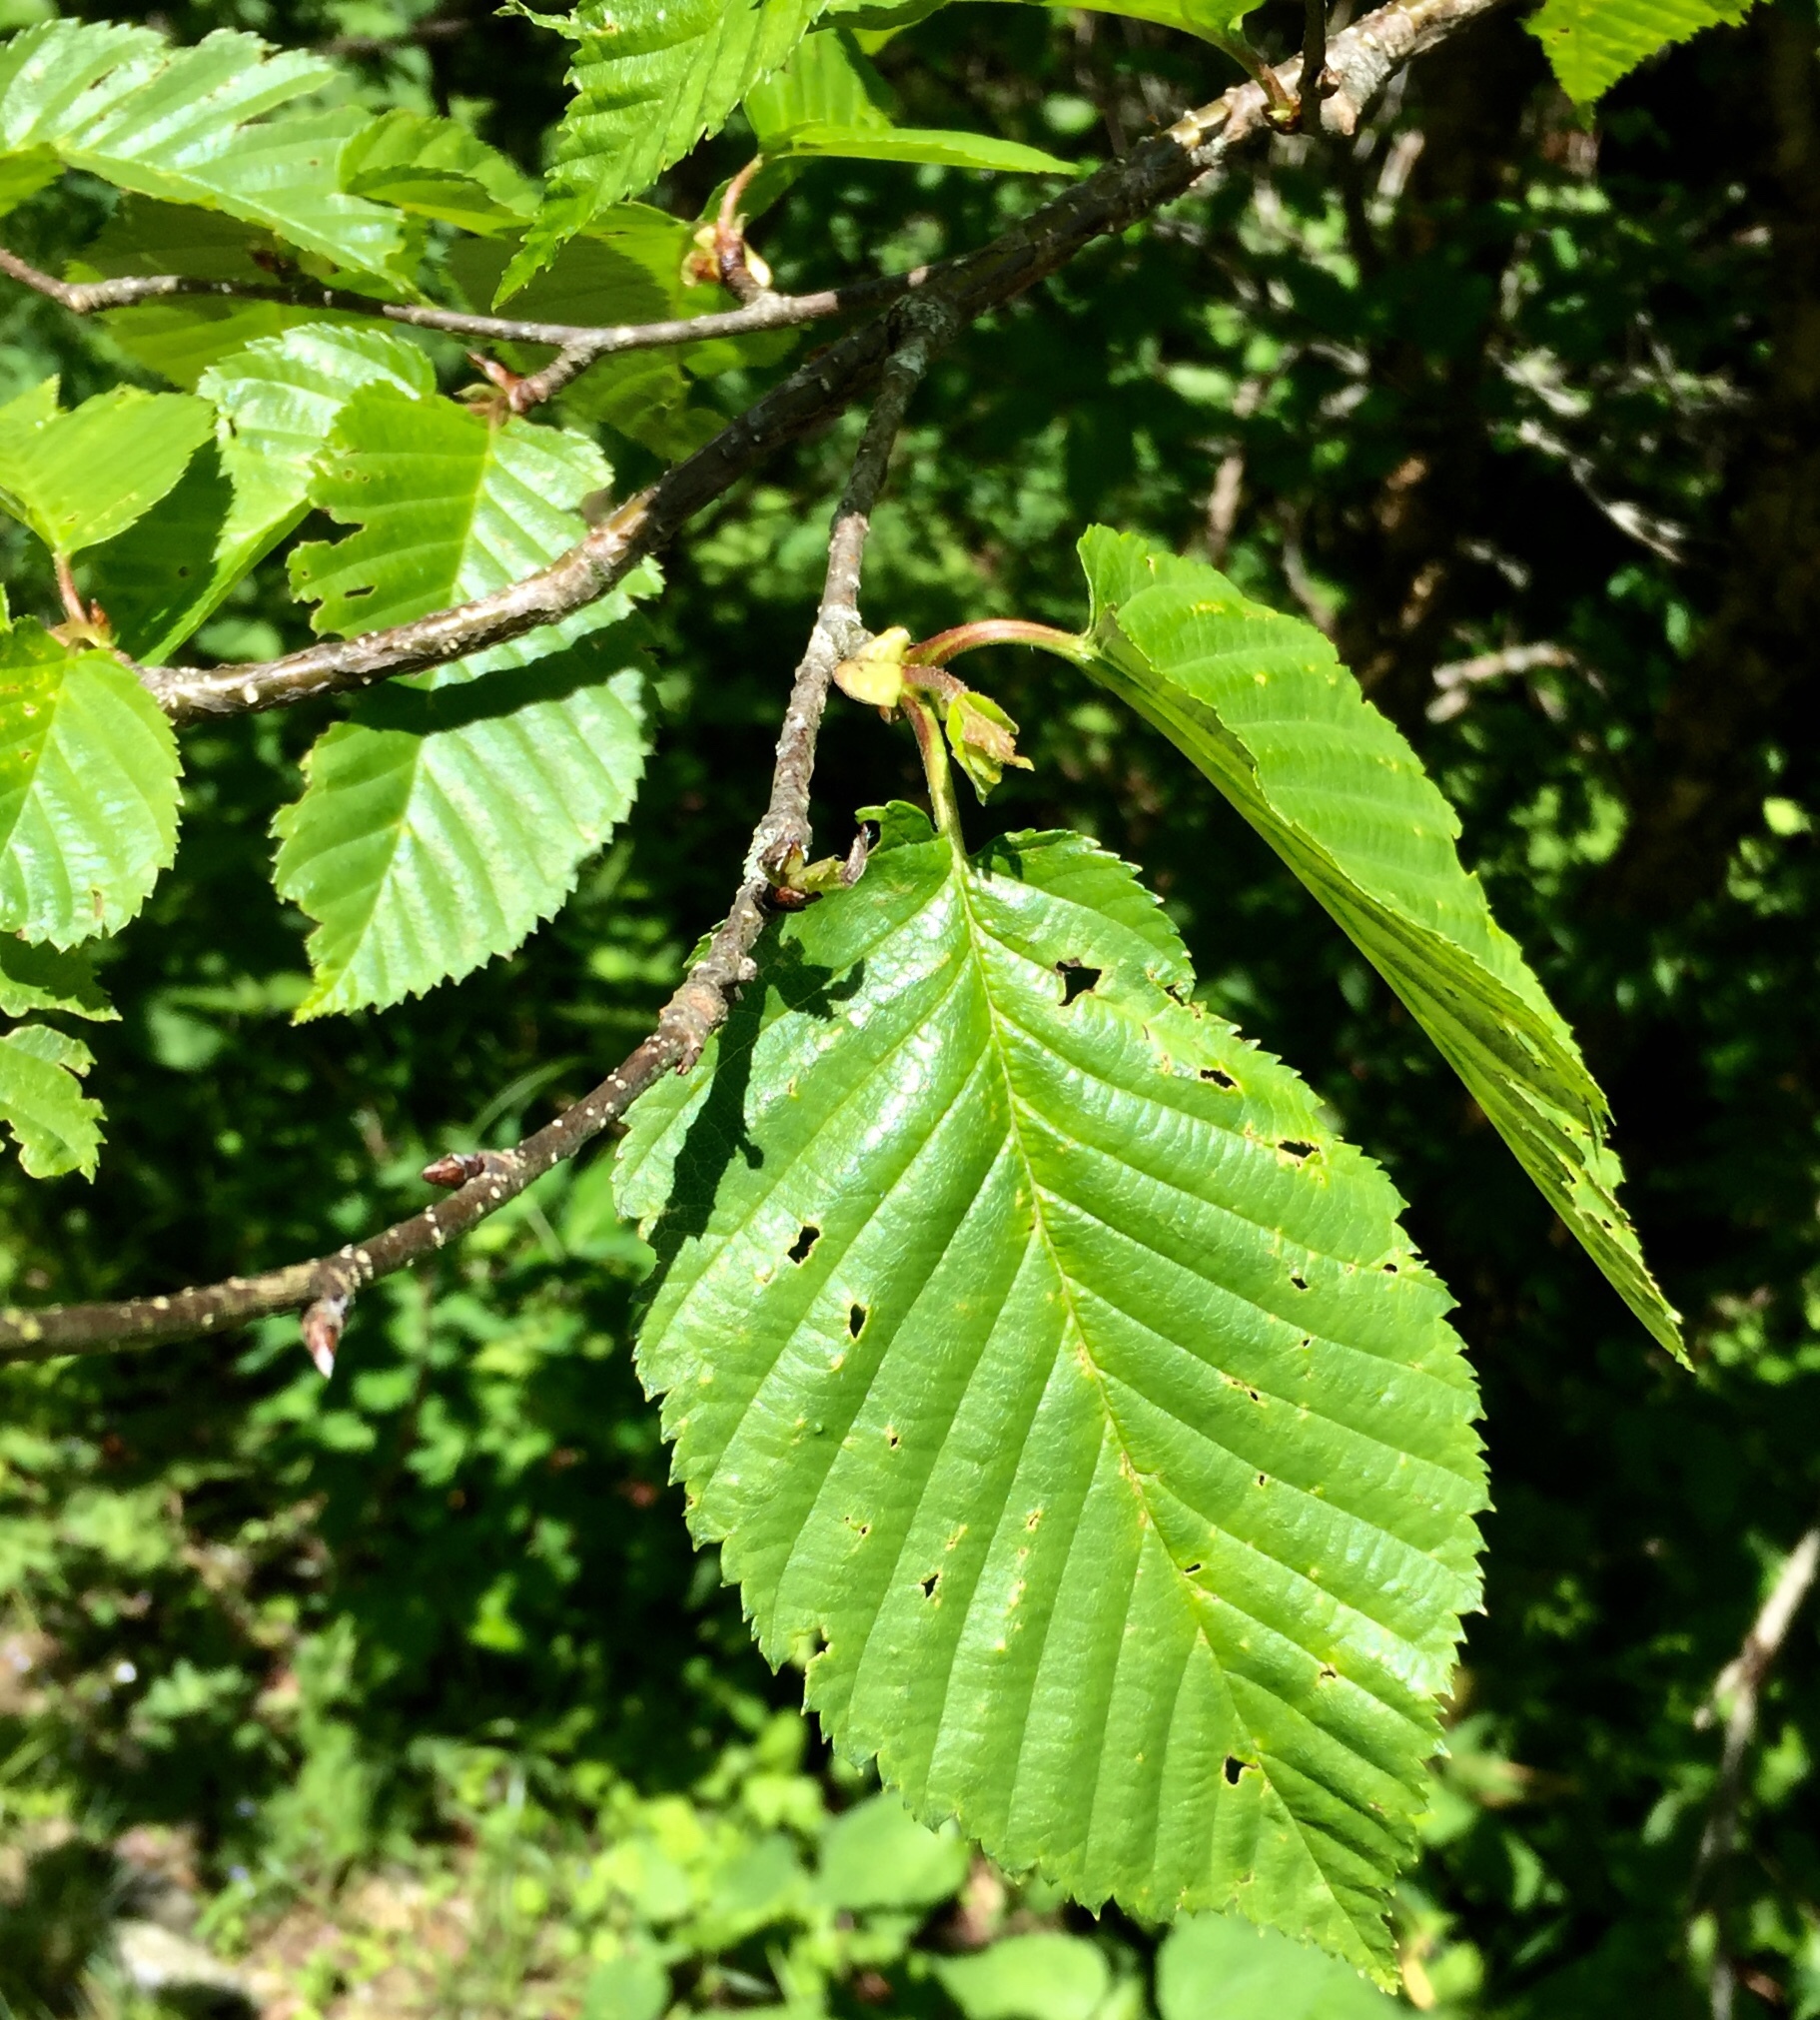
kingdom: Plantae
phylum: Tracheophyta
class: Magnoliopsida
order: Fagales
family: Betulaceae
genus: Betula
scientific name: Betula alleghaniensis
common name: Yellow birch
